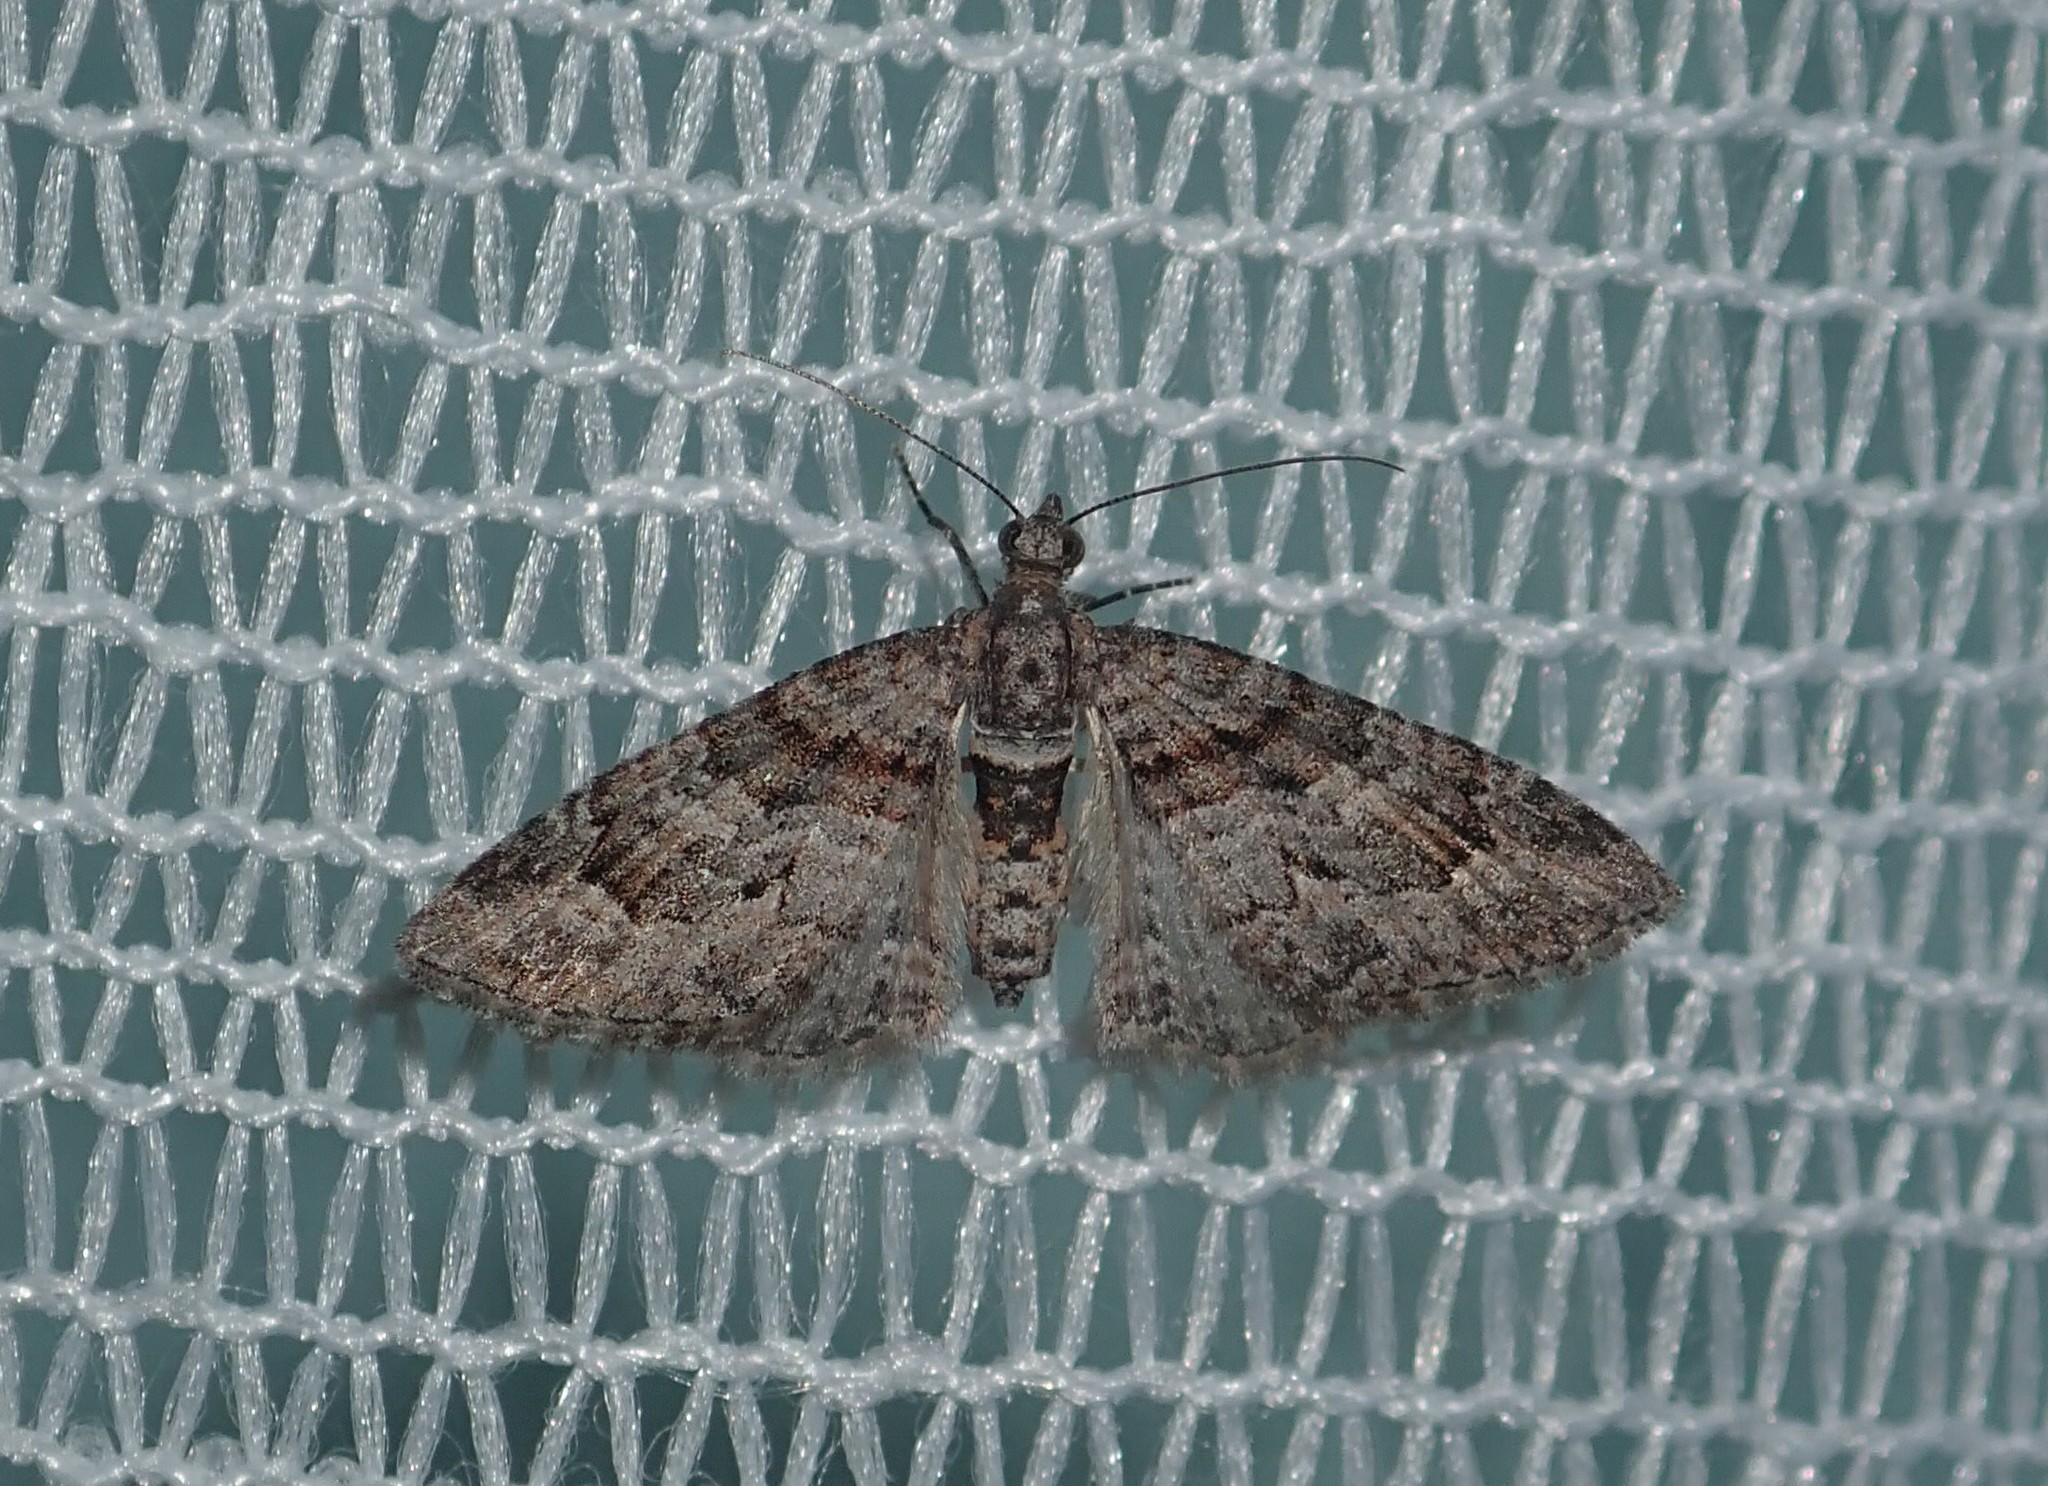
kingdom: Animalia
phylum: Arthropoda
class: Insecta
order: Lepidoptera
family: Geometridae
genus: Phrissogonus
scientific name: Phrissogonus laticostata
